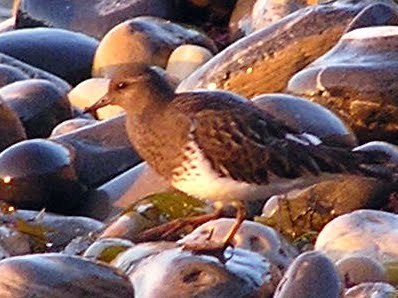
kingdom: Animalia
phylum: Chordata
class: Aves
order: Charadriiformes
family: Scolopacidae
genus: Arenaria
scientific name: Arenaria melanocephala
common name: Black turnstone
